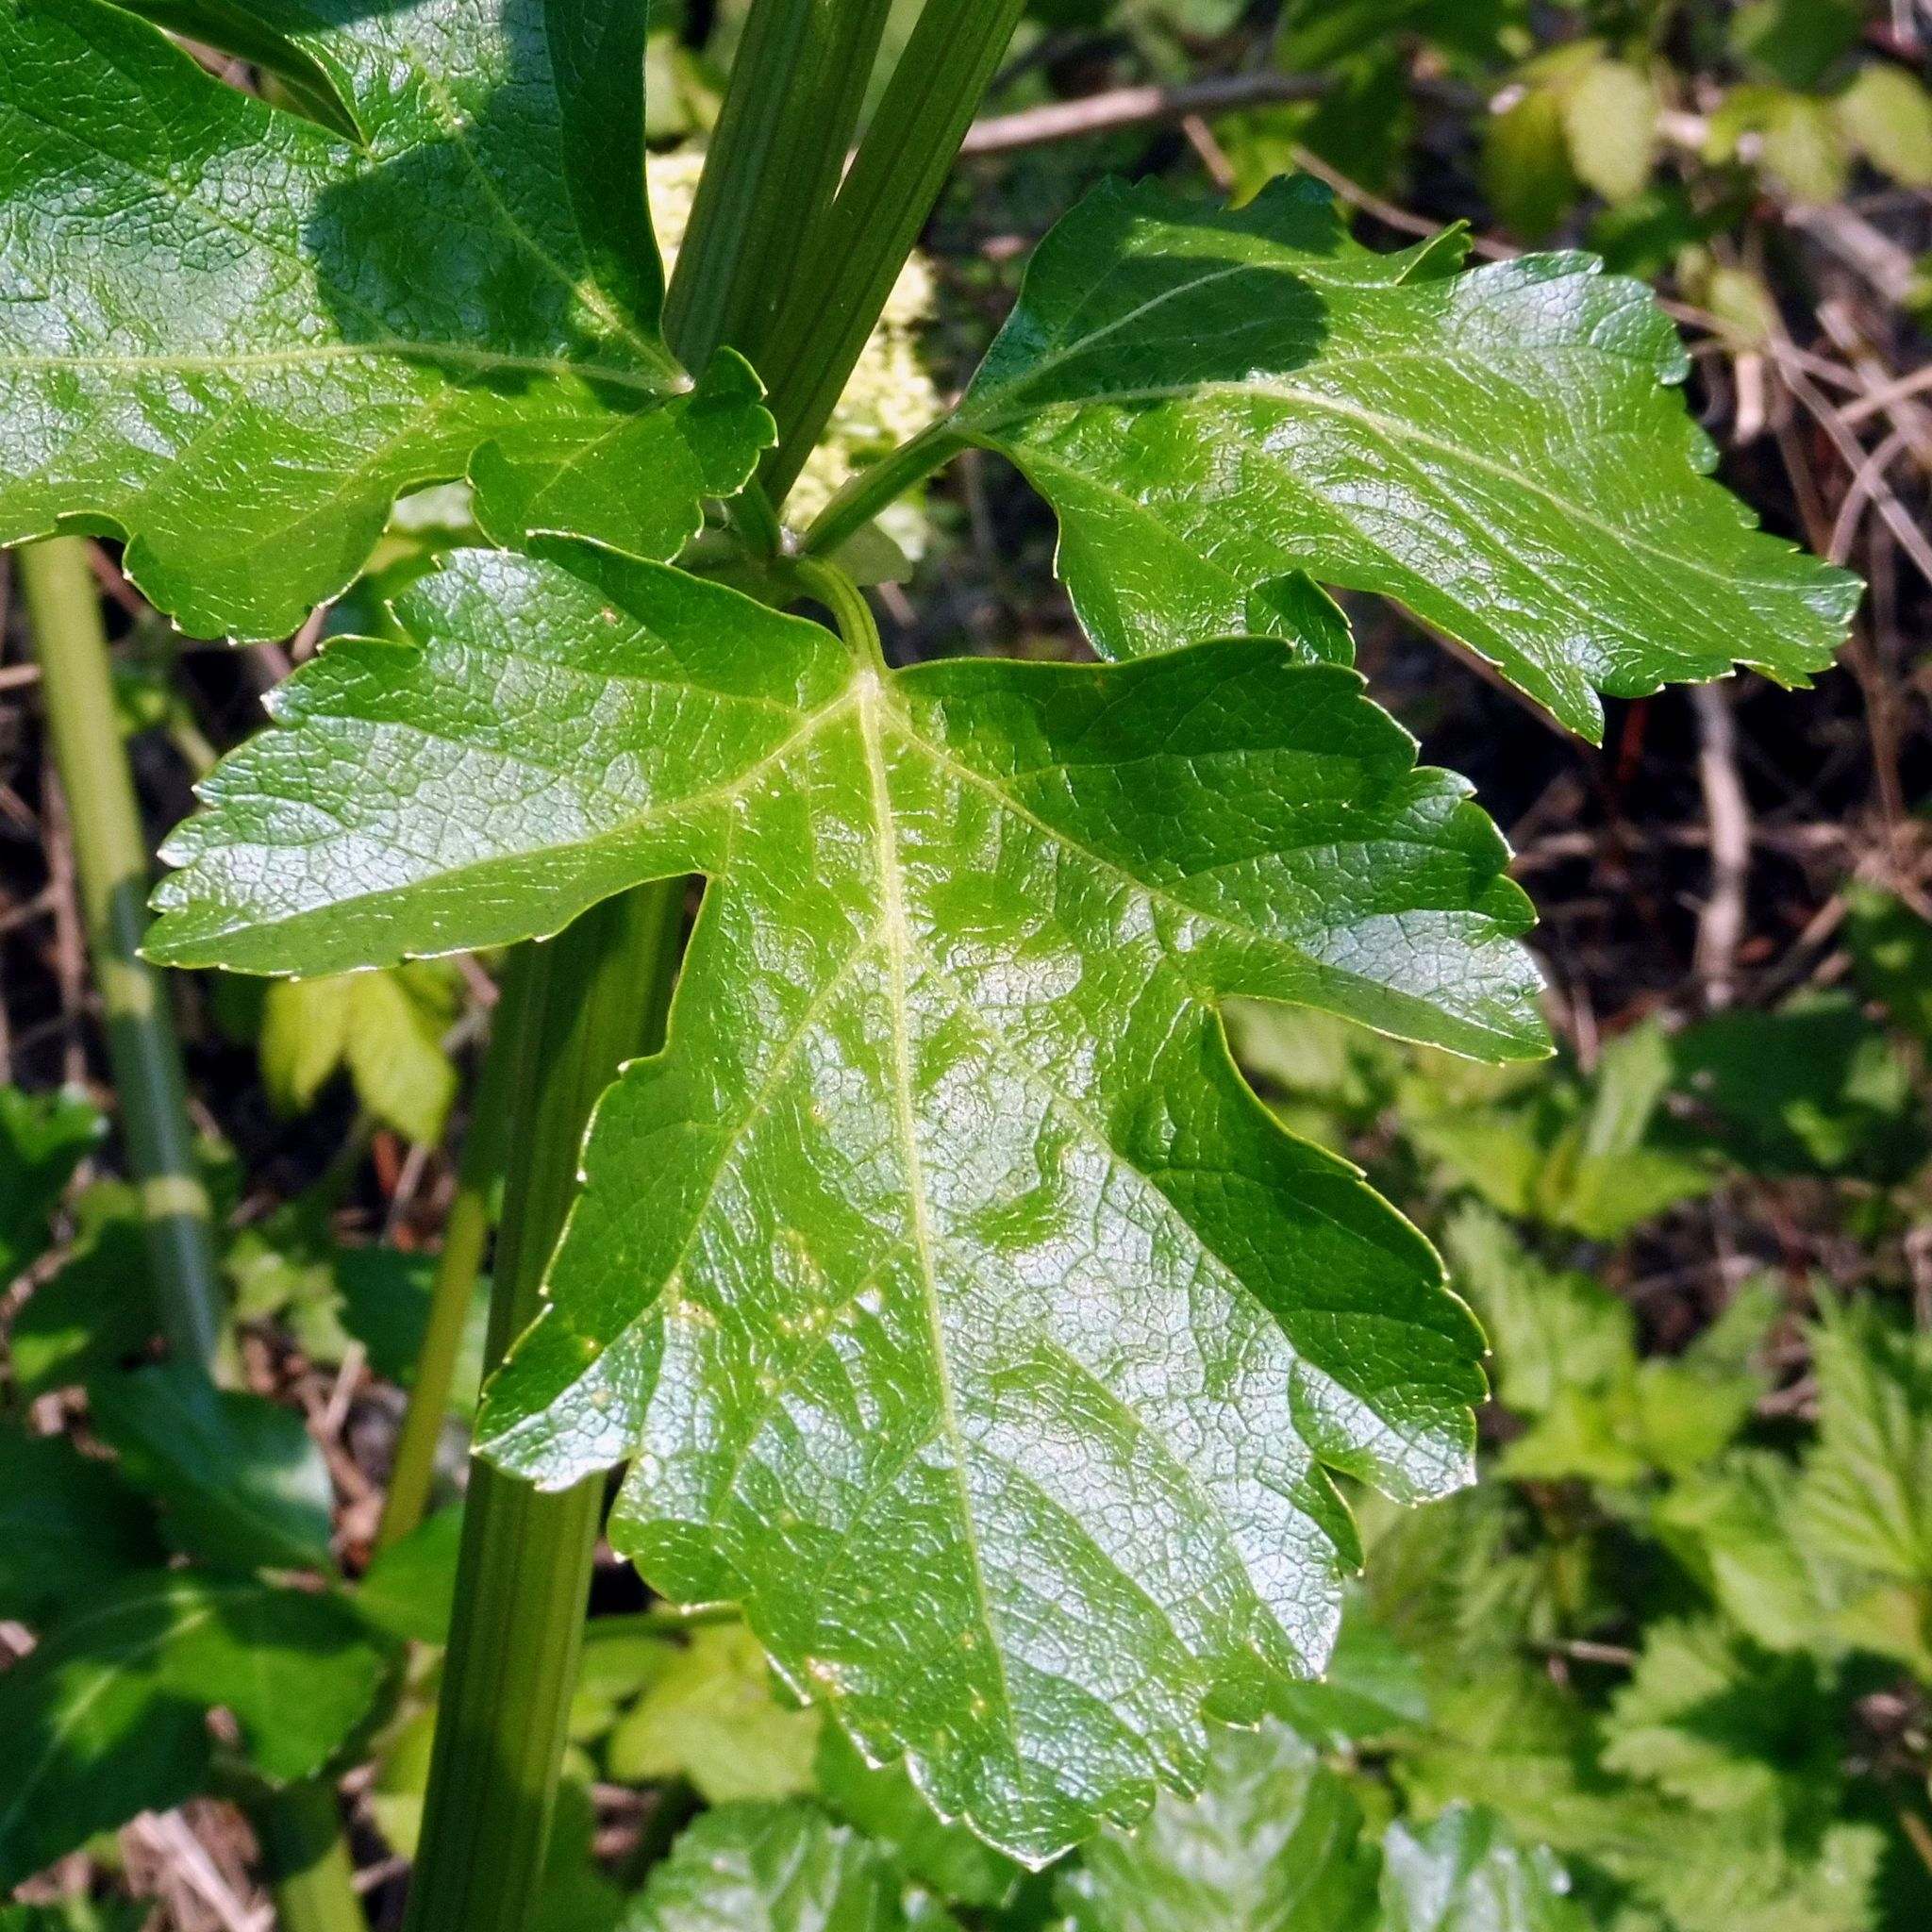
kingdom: Plantae
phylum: Tracheophyta
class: Magnoliopsida
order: Apiales
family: Apiaceae
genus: Smyrnium
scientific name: Smyrnium olusatrum
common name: Alexanders
